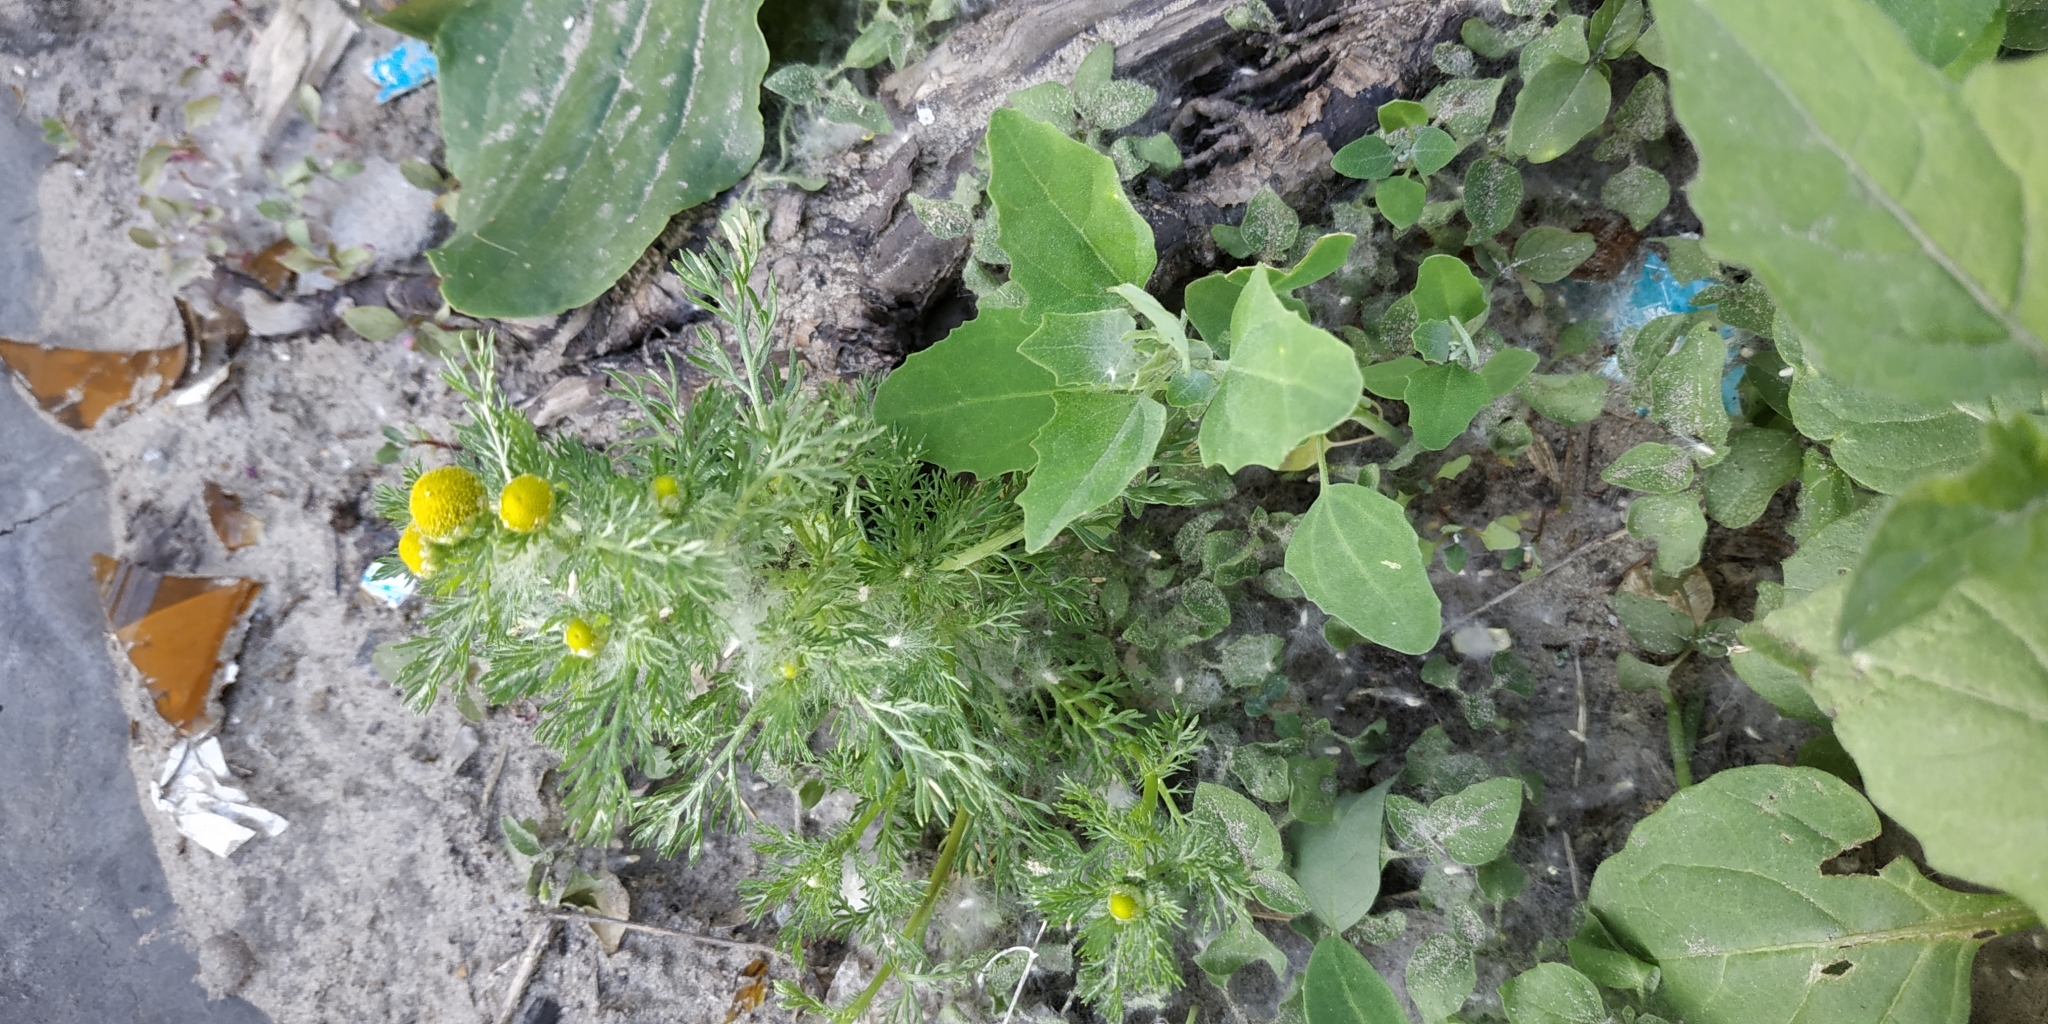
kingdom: Plantae
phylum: Tracheophyta
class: Magnoliopsida
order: Asterales
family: Asteraceae
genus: Matricaria
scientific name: Matricaria discoidea
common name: Disc mayweed
